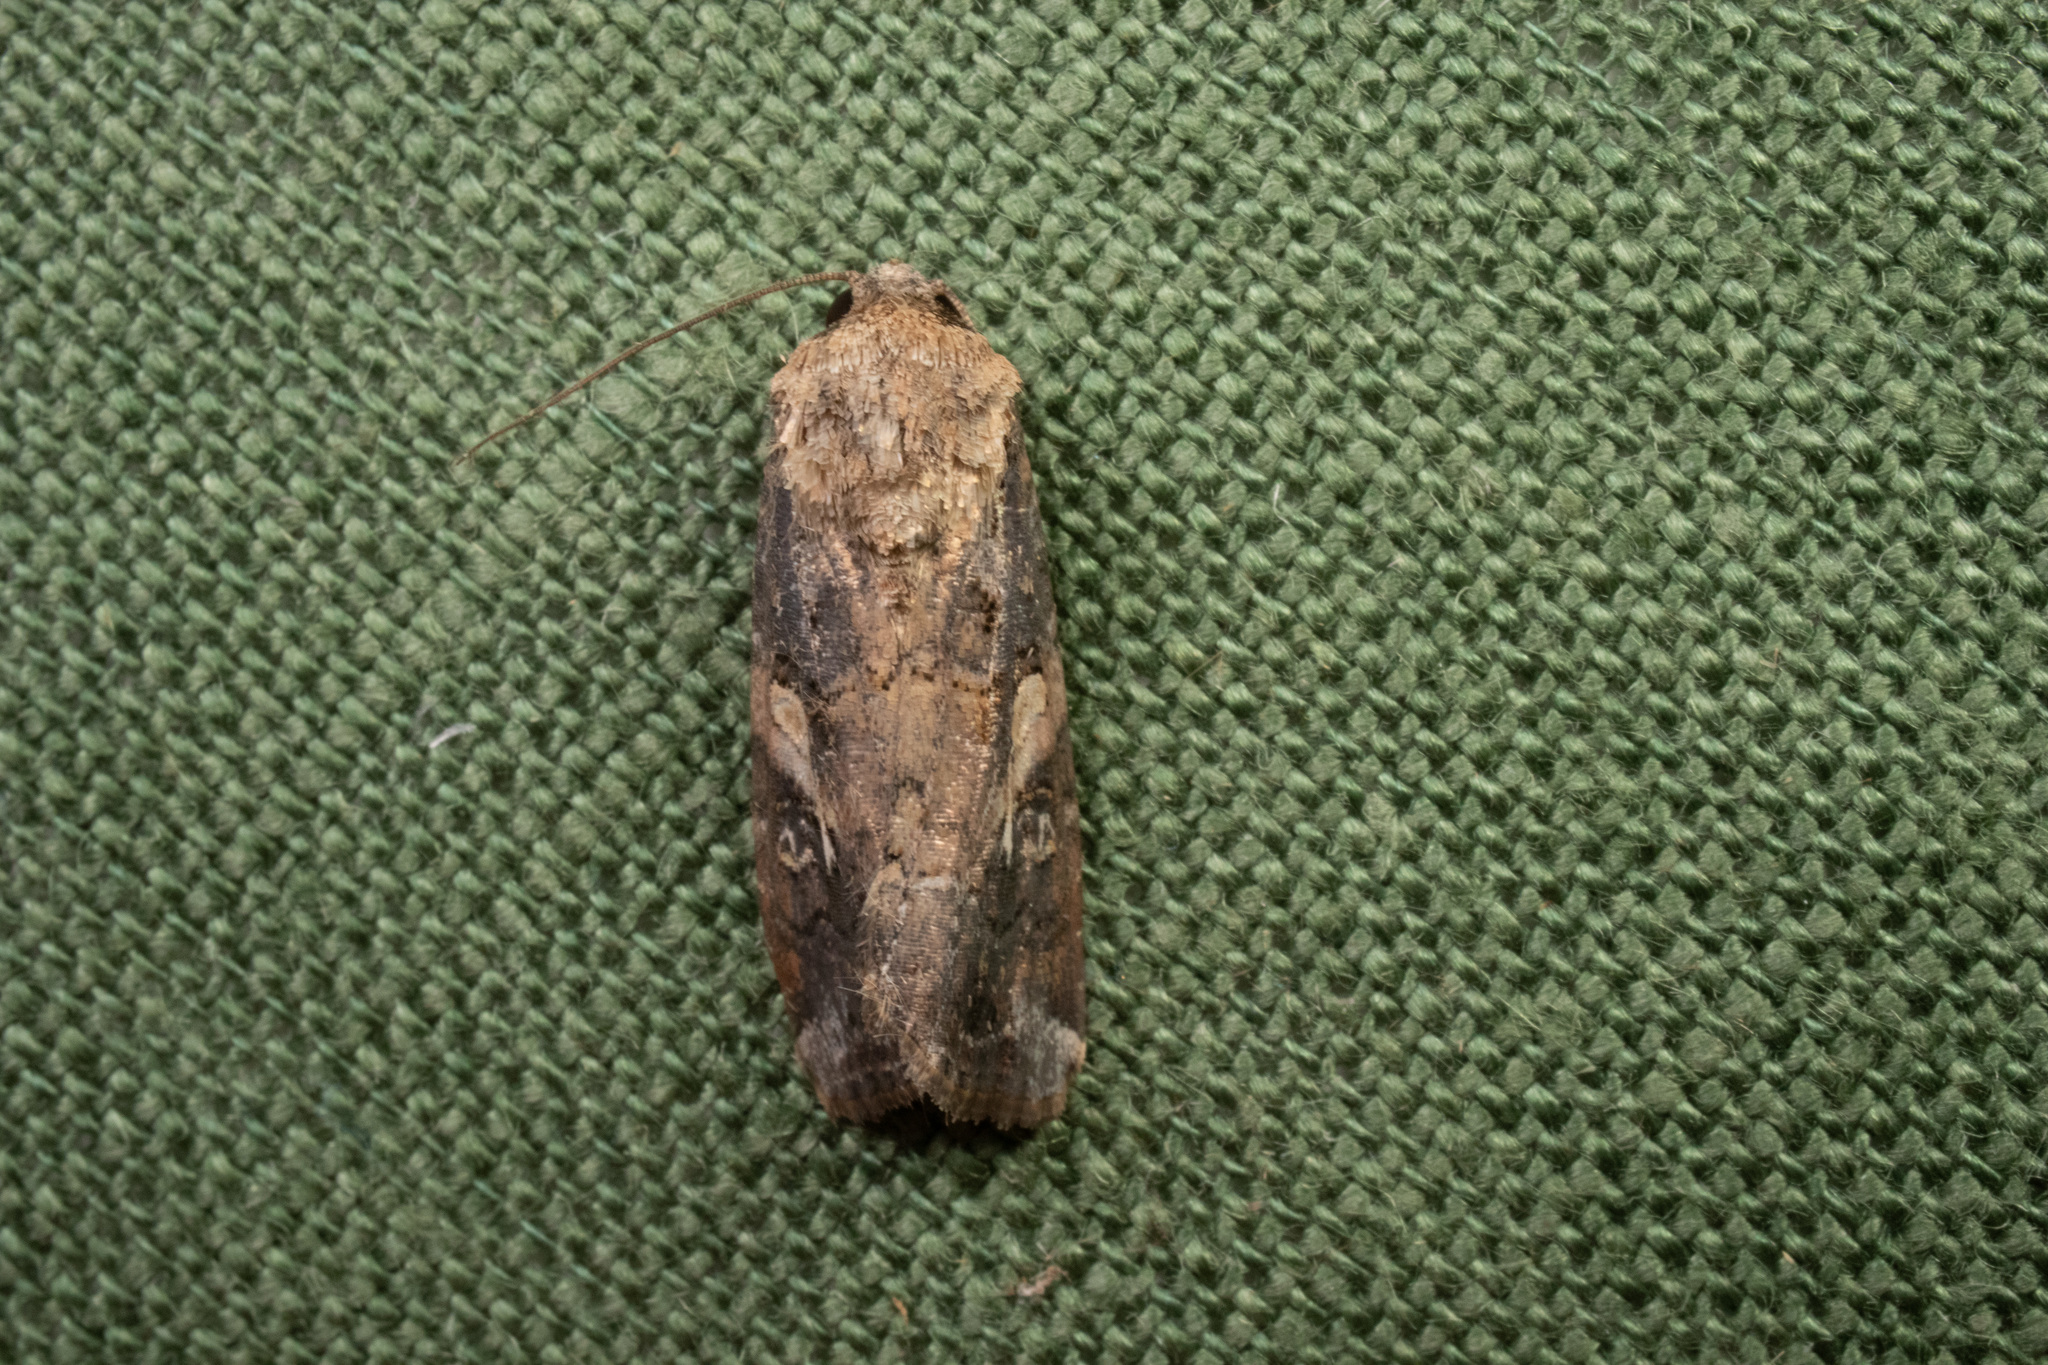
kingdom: Animalia
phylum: Arthropoda
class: Insecta
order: Lepidoptera
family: Noctuidae
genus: Spodoptera
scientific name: Spodoptera frugiperda
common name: Fall armyworm
